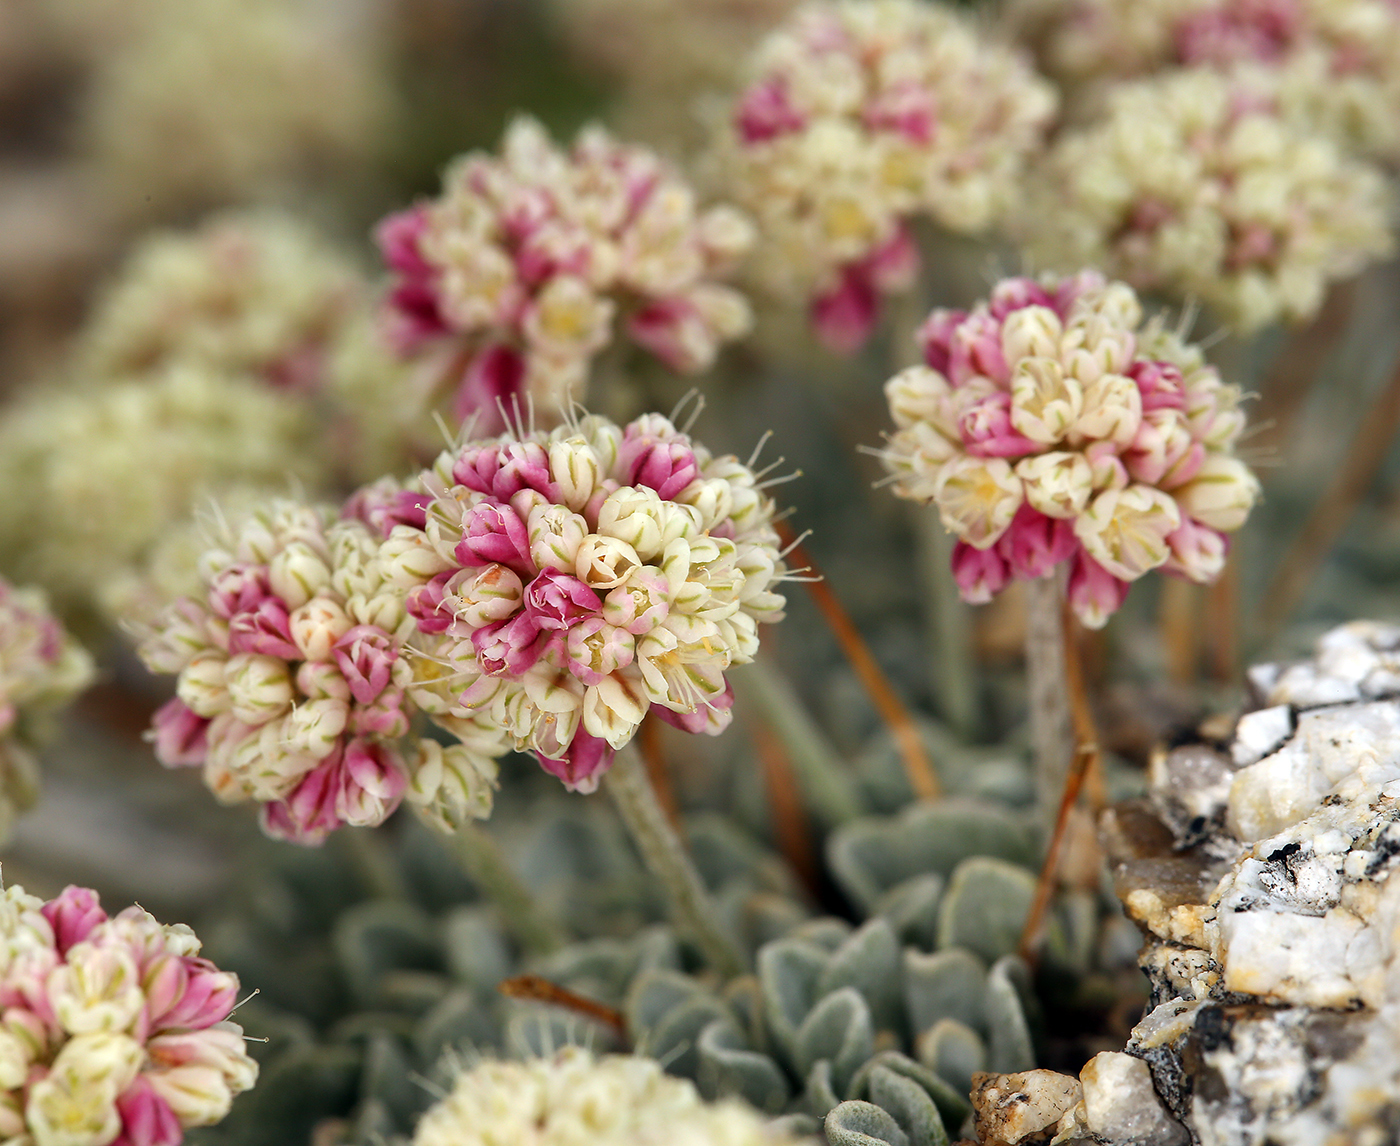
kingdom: Plantae
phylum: Tracheophyta
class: Magnoliopsida
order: Caryophyllales
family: Polygonaceae
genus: Eriogonum
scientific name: Eriogonum ovalifolium
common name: Cushion buckwheat
